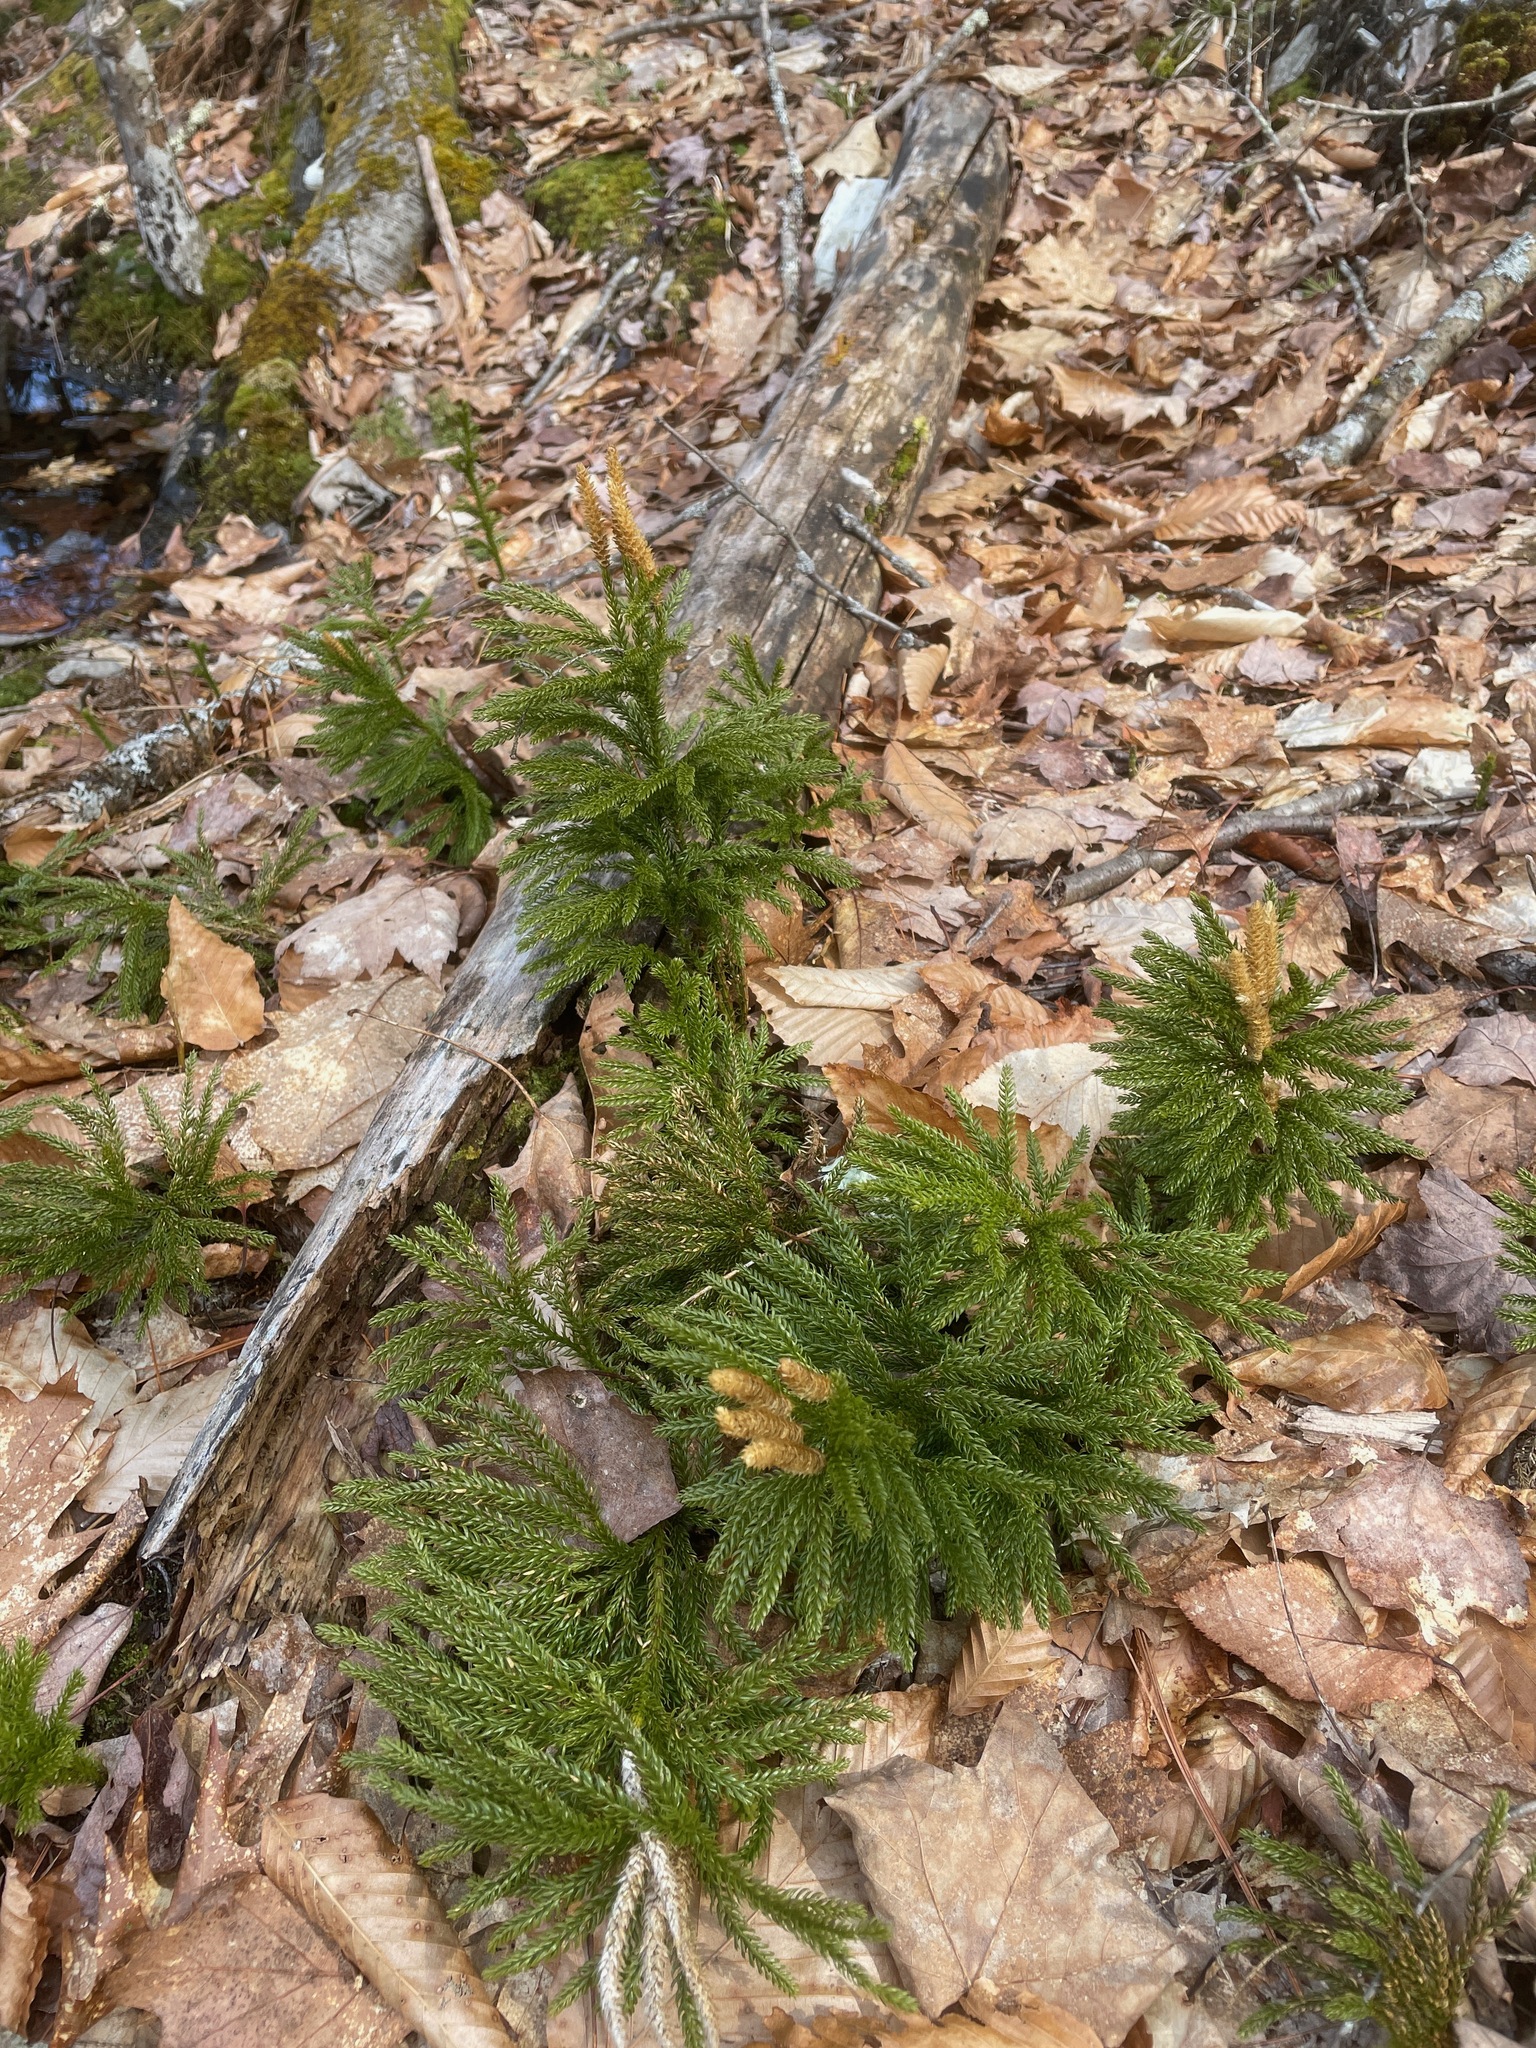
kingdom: Plantae
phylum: Tracheophyta
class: Lycopodiopsida
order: Lycopodiales
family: Lycopodiaceae
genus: Dendrolycopodium
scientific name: Dendrolycopodium dendroideum
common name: Northern tree-clubmoss
